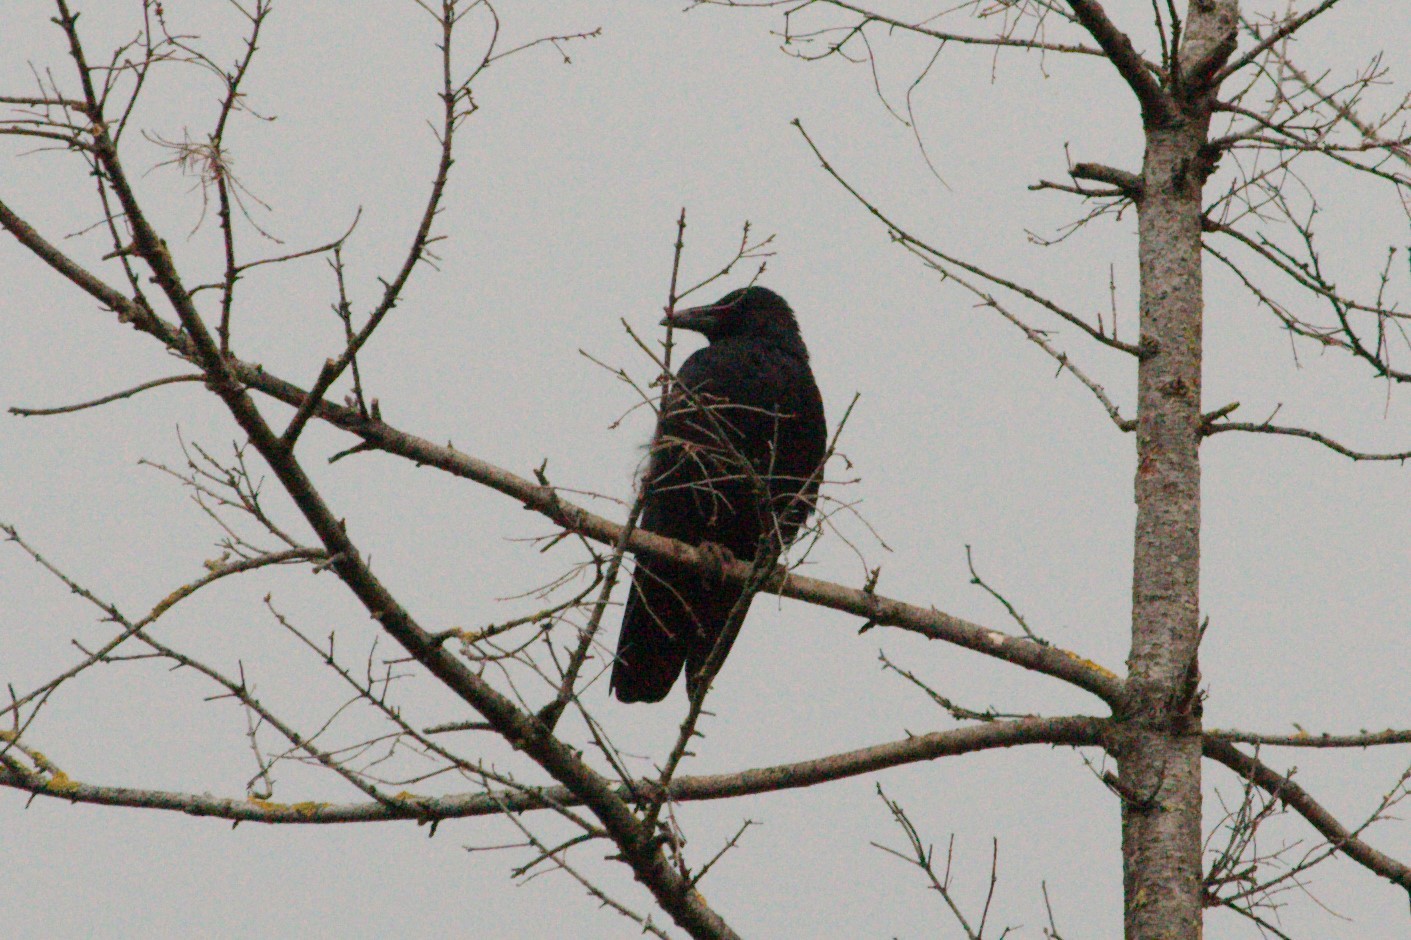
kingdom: Animalia
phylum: Chordata
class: Aves
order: Passeriformes
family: Corvidae
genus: Corvus
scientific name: Corvus corone
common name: Carrion crow
